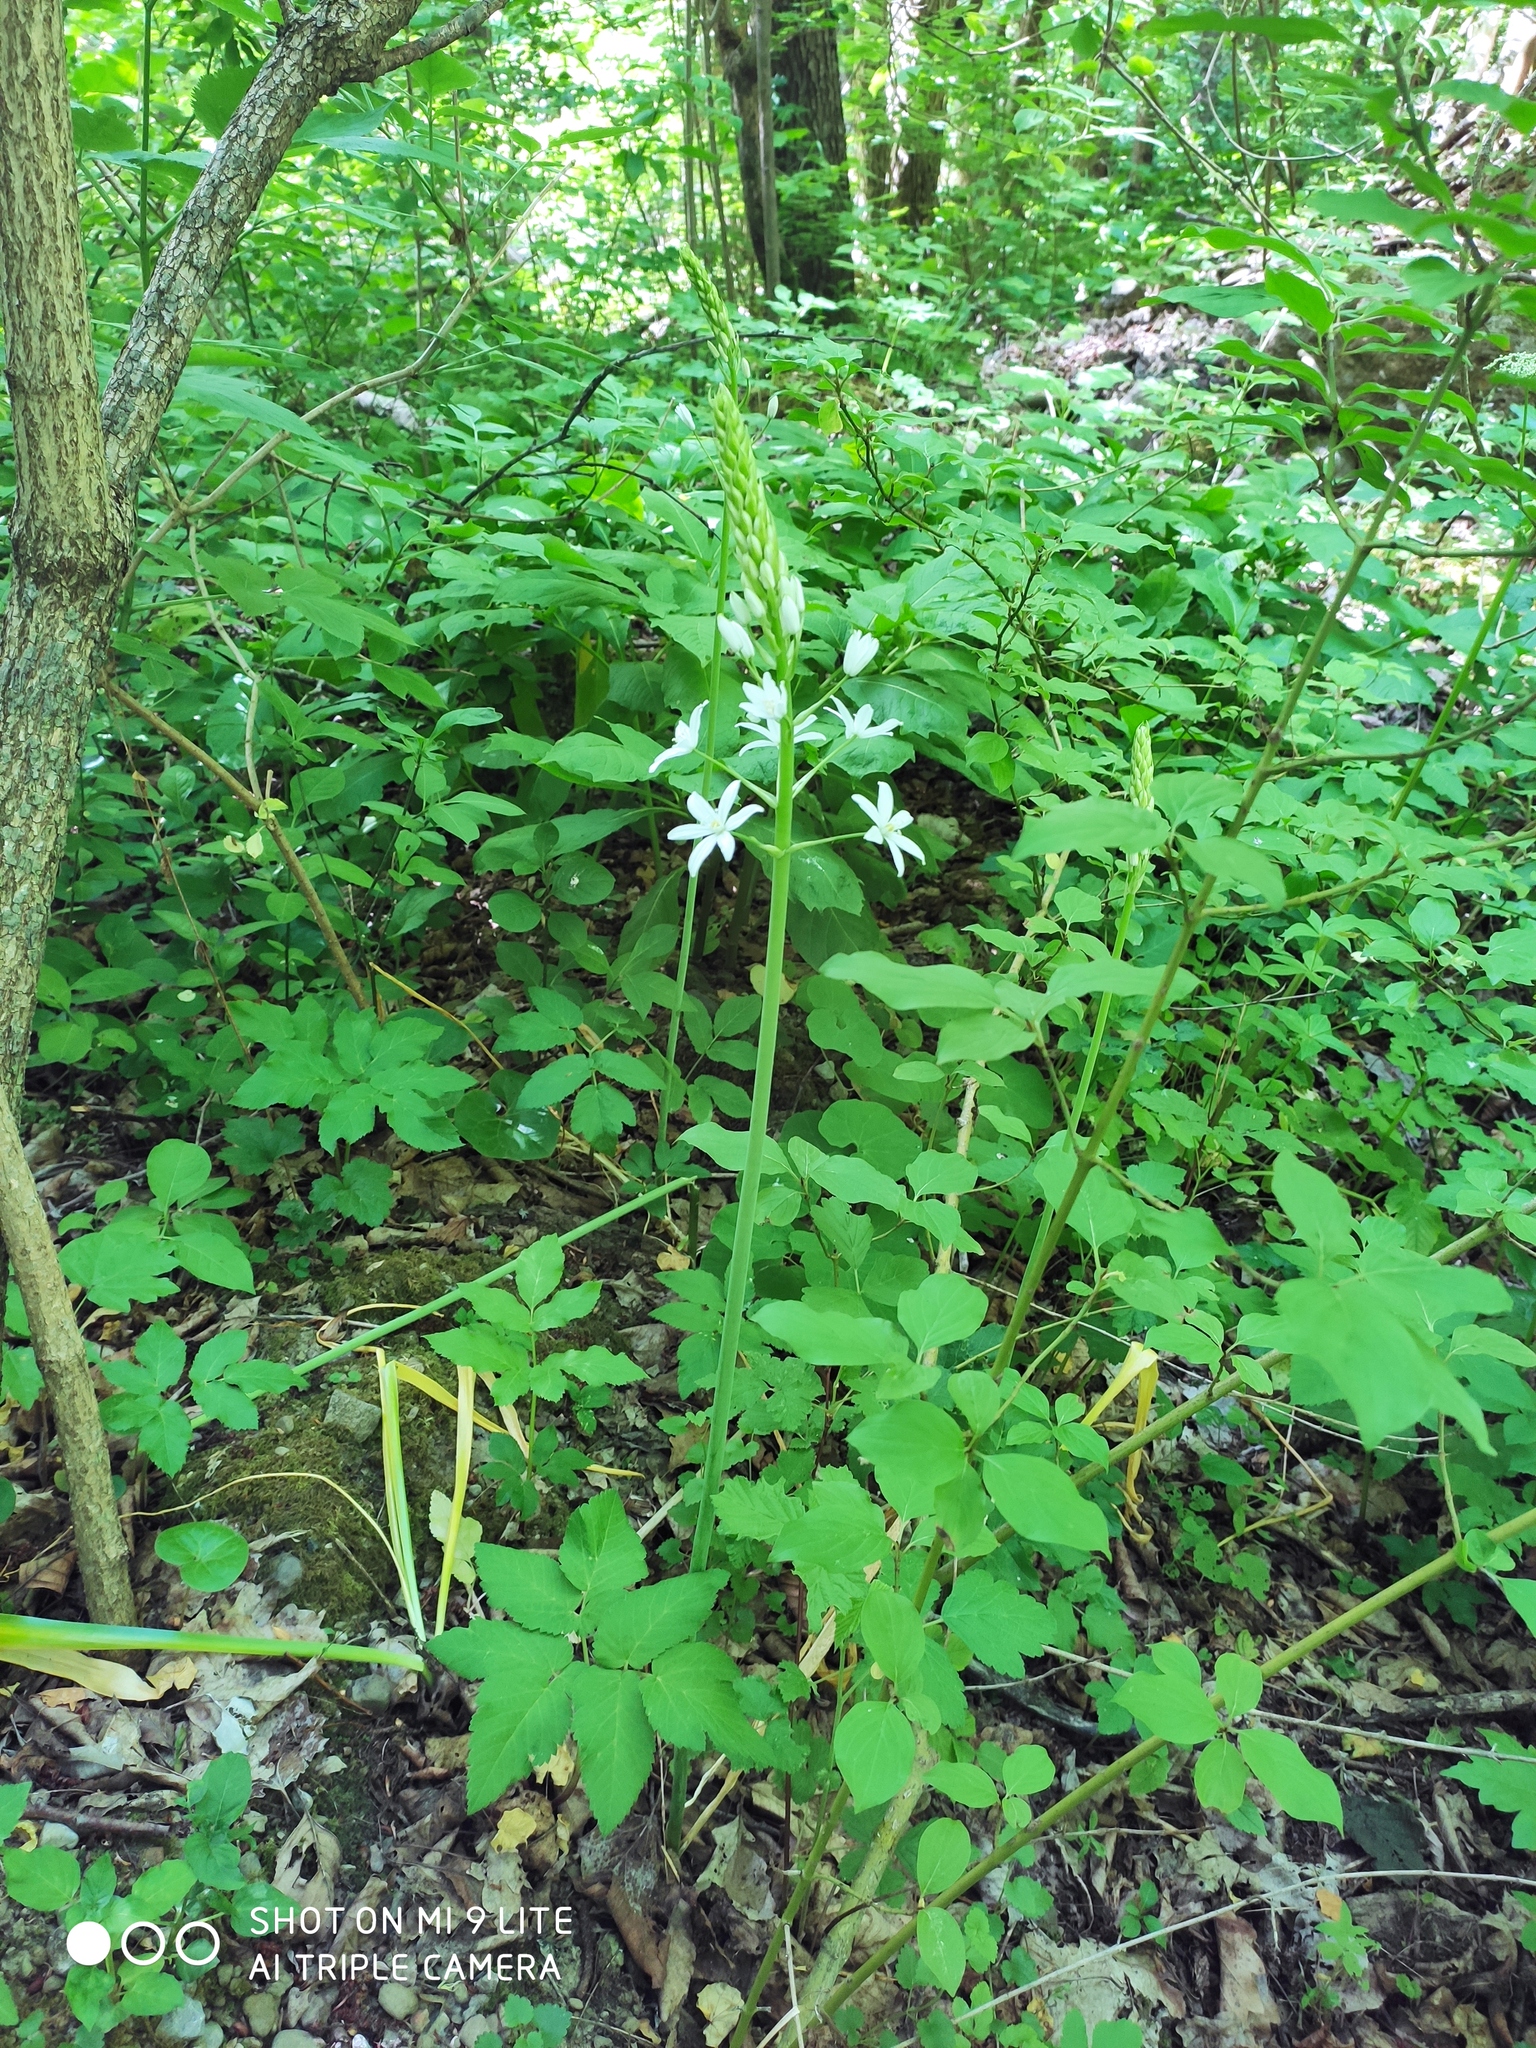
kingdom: Plantae
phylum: Tracheophyta
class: Liliopsida
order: Asparagales
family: Asparagaceae
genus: Ornithogalum
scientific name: Ornithogalum ponticum
